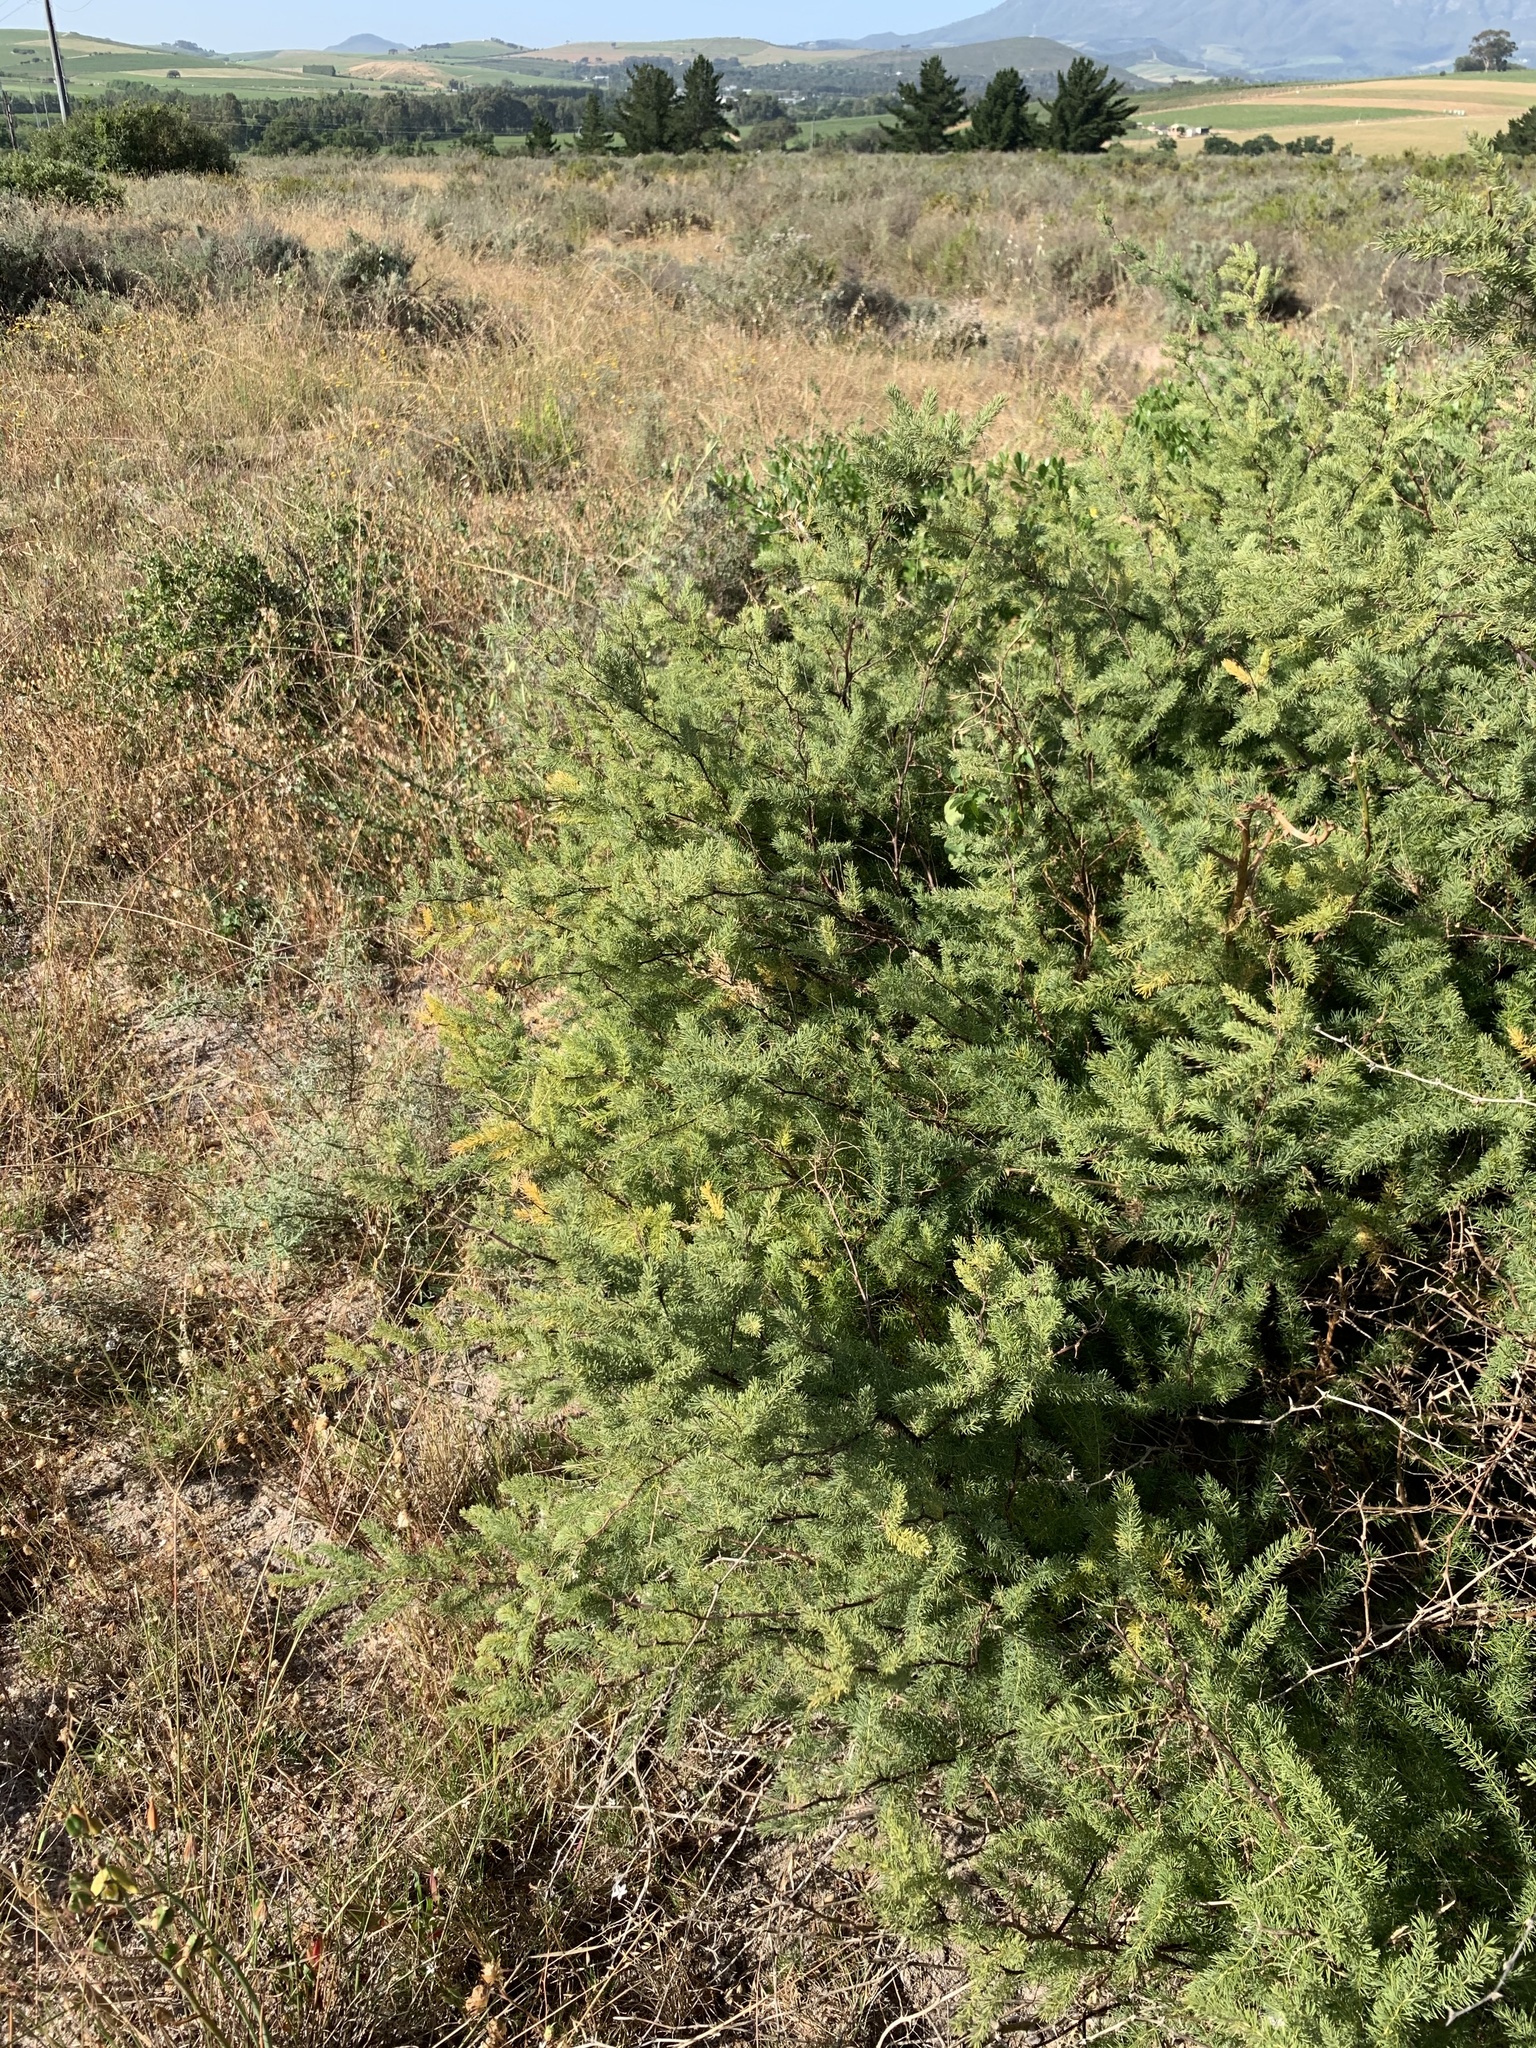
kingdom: Plantae
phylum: Tracheophyta
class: Liliopsida
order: Asparagales
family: Asparagaceae
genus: Asparagus
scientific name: Asparagus rubicundus
